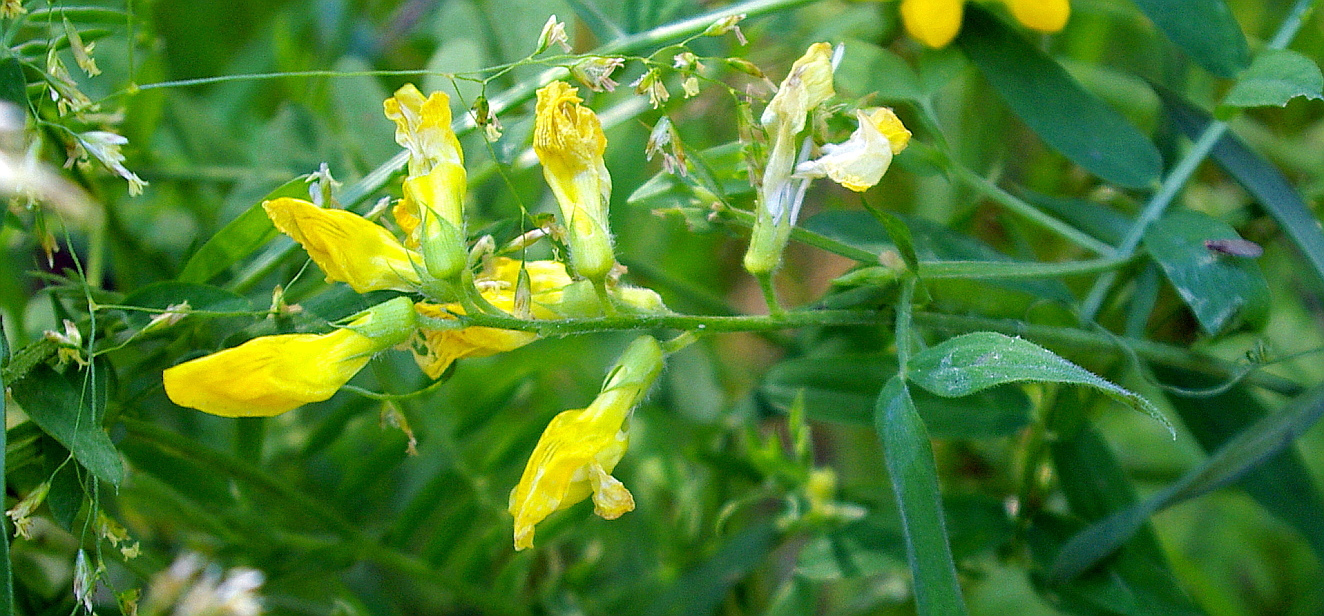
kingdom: Plantae
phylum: Tracheophyta
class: Magnoliopsida
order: Fabales
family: Fabaceae
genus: Lathyrus
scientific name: Lathyrus pratensis
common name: Meadow vetchling
